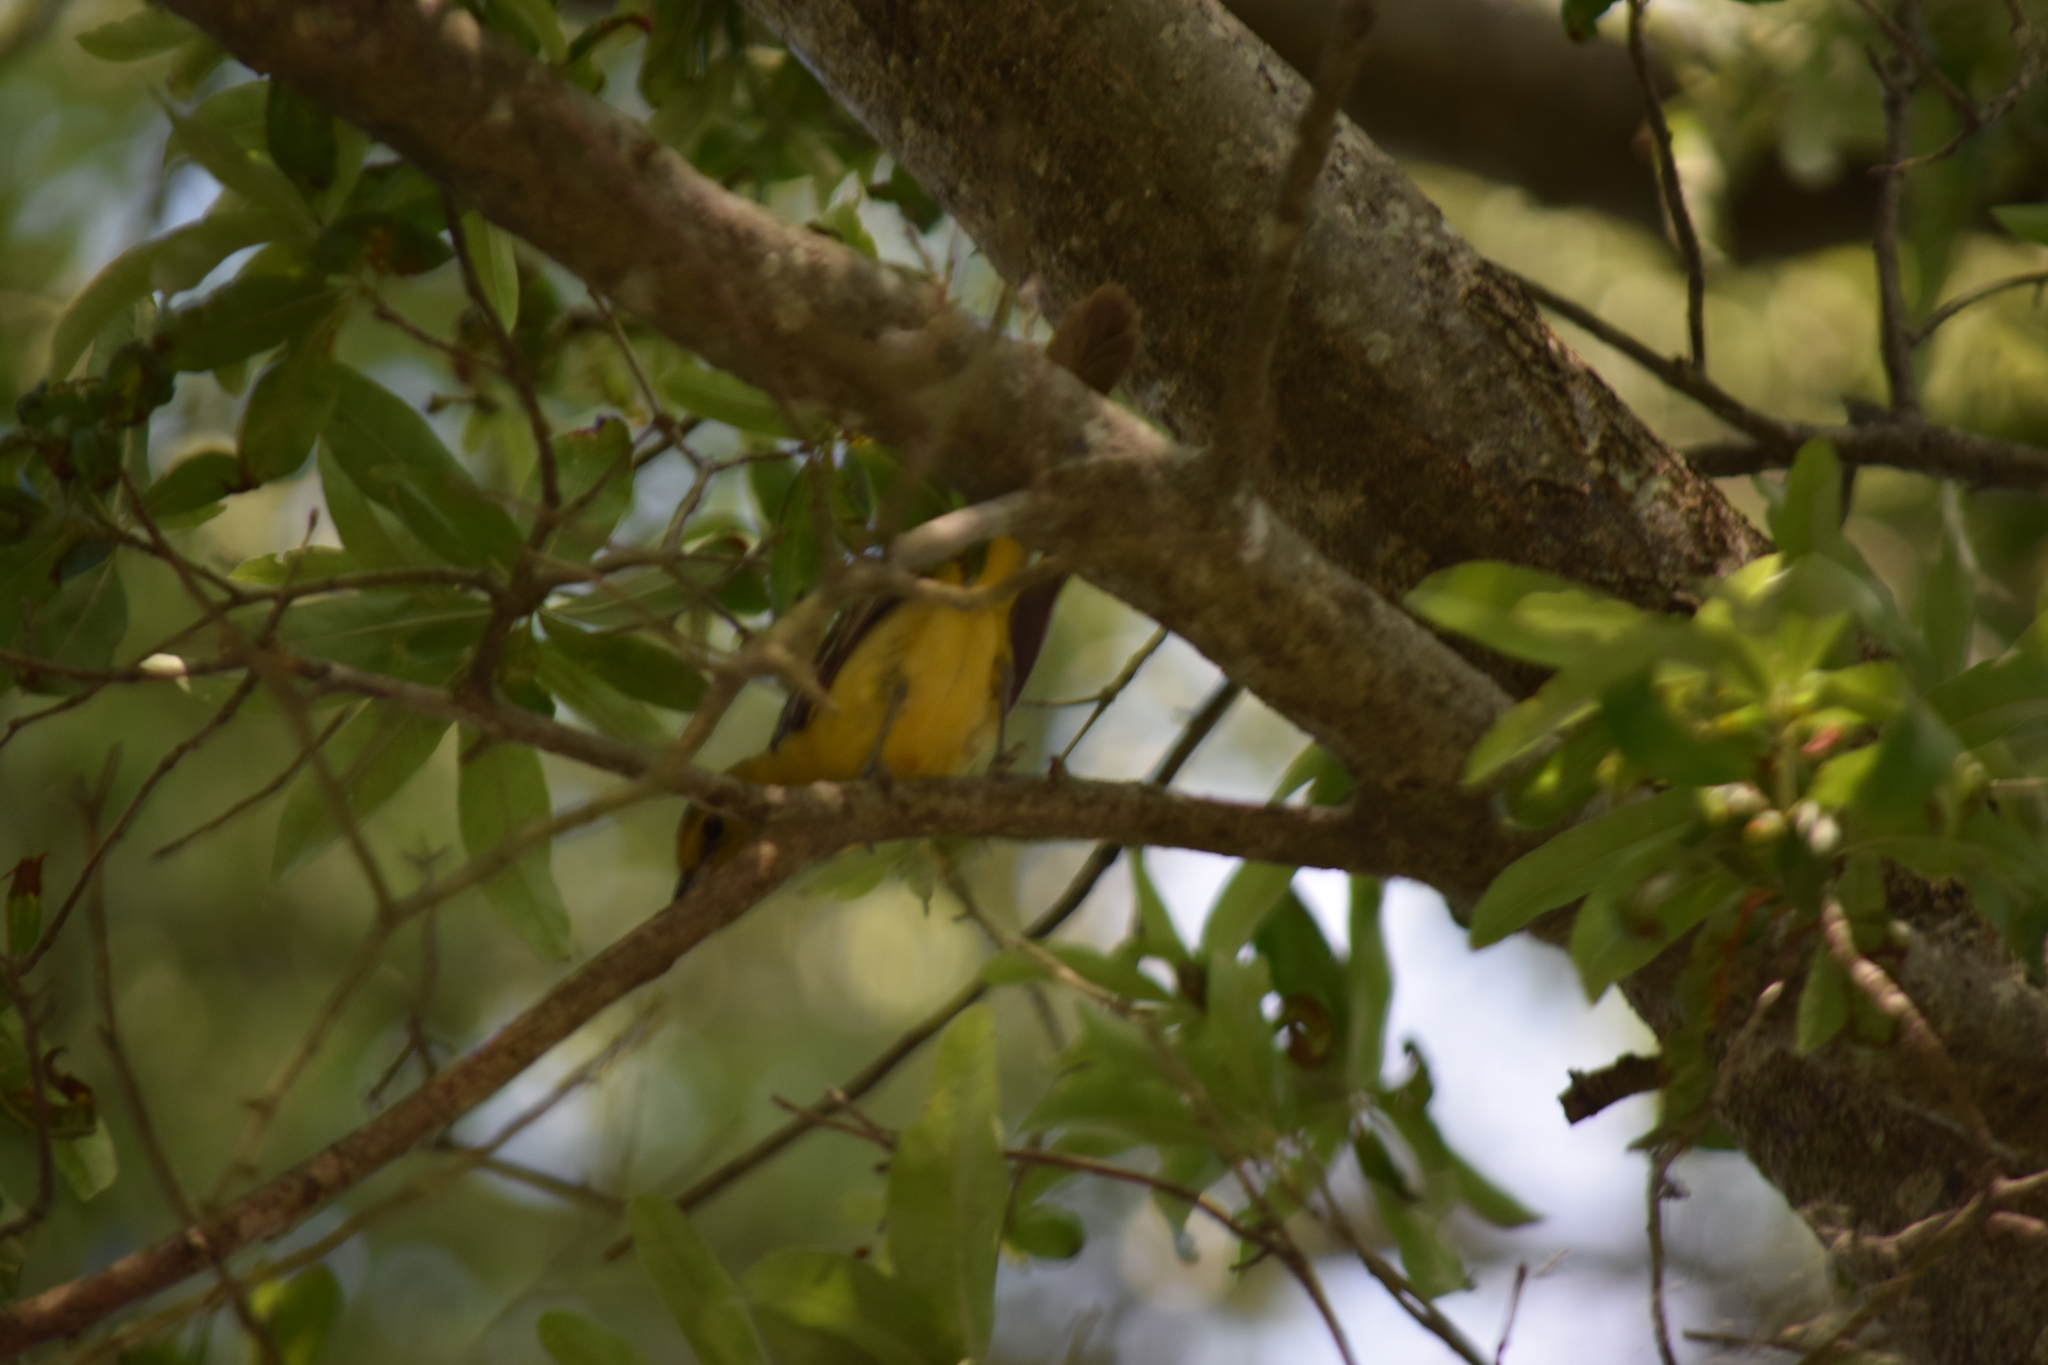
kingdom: Animalia
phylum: Chordata
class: Aves
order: Passeriformes
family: Icteridae
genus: Icterus
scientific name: Icterus spurius
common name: Orchard oriole
